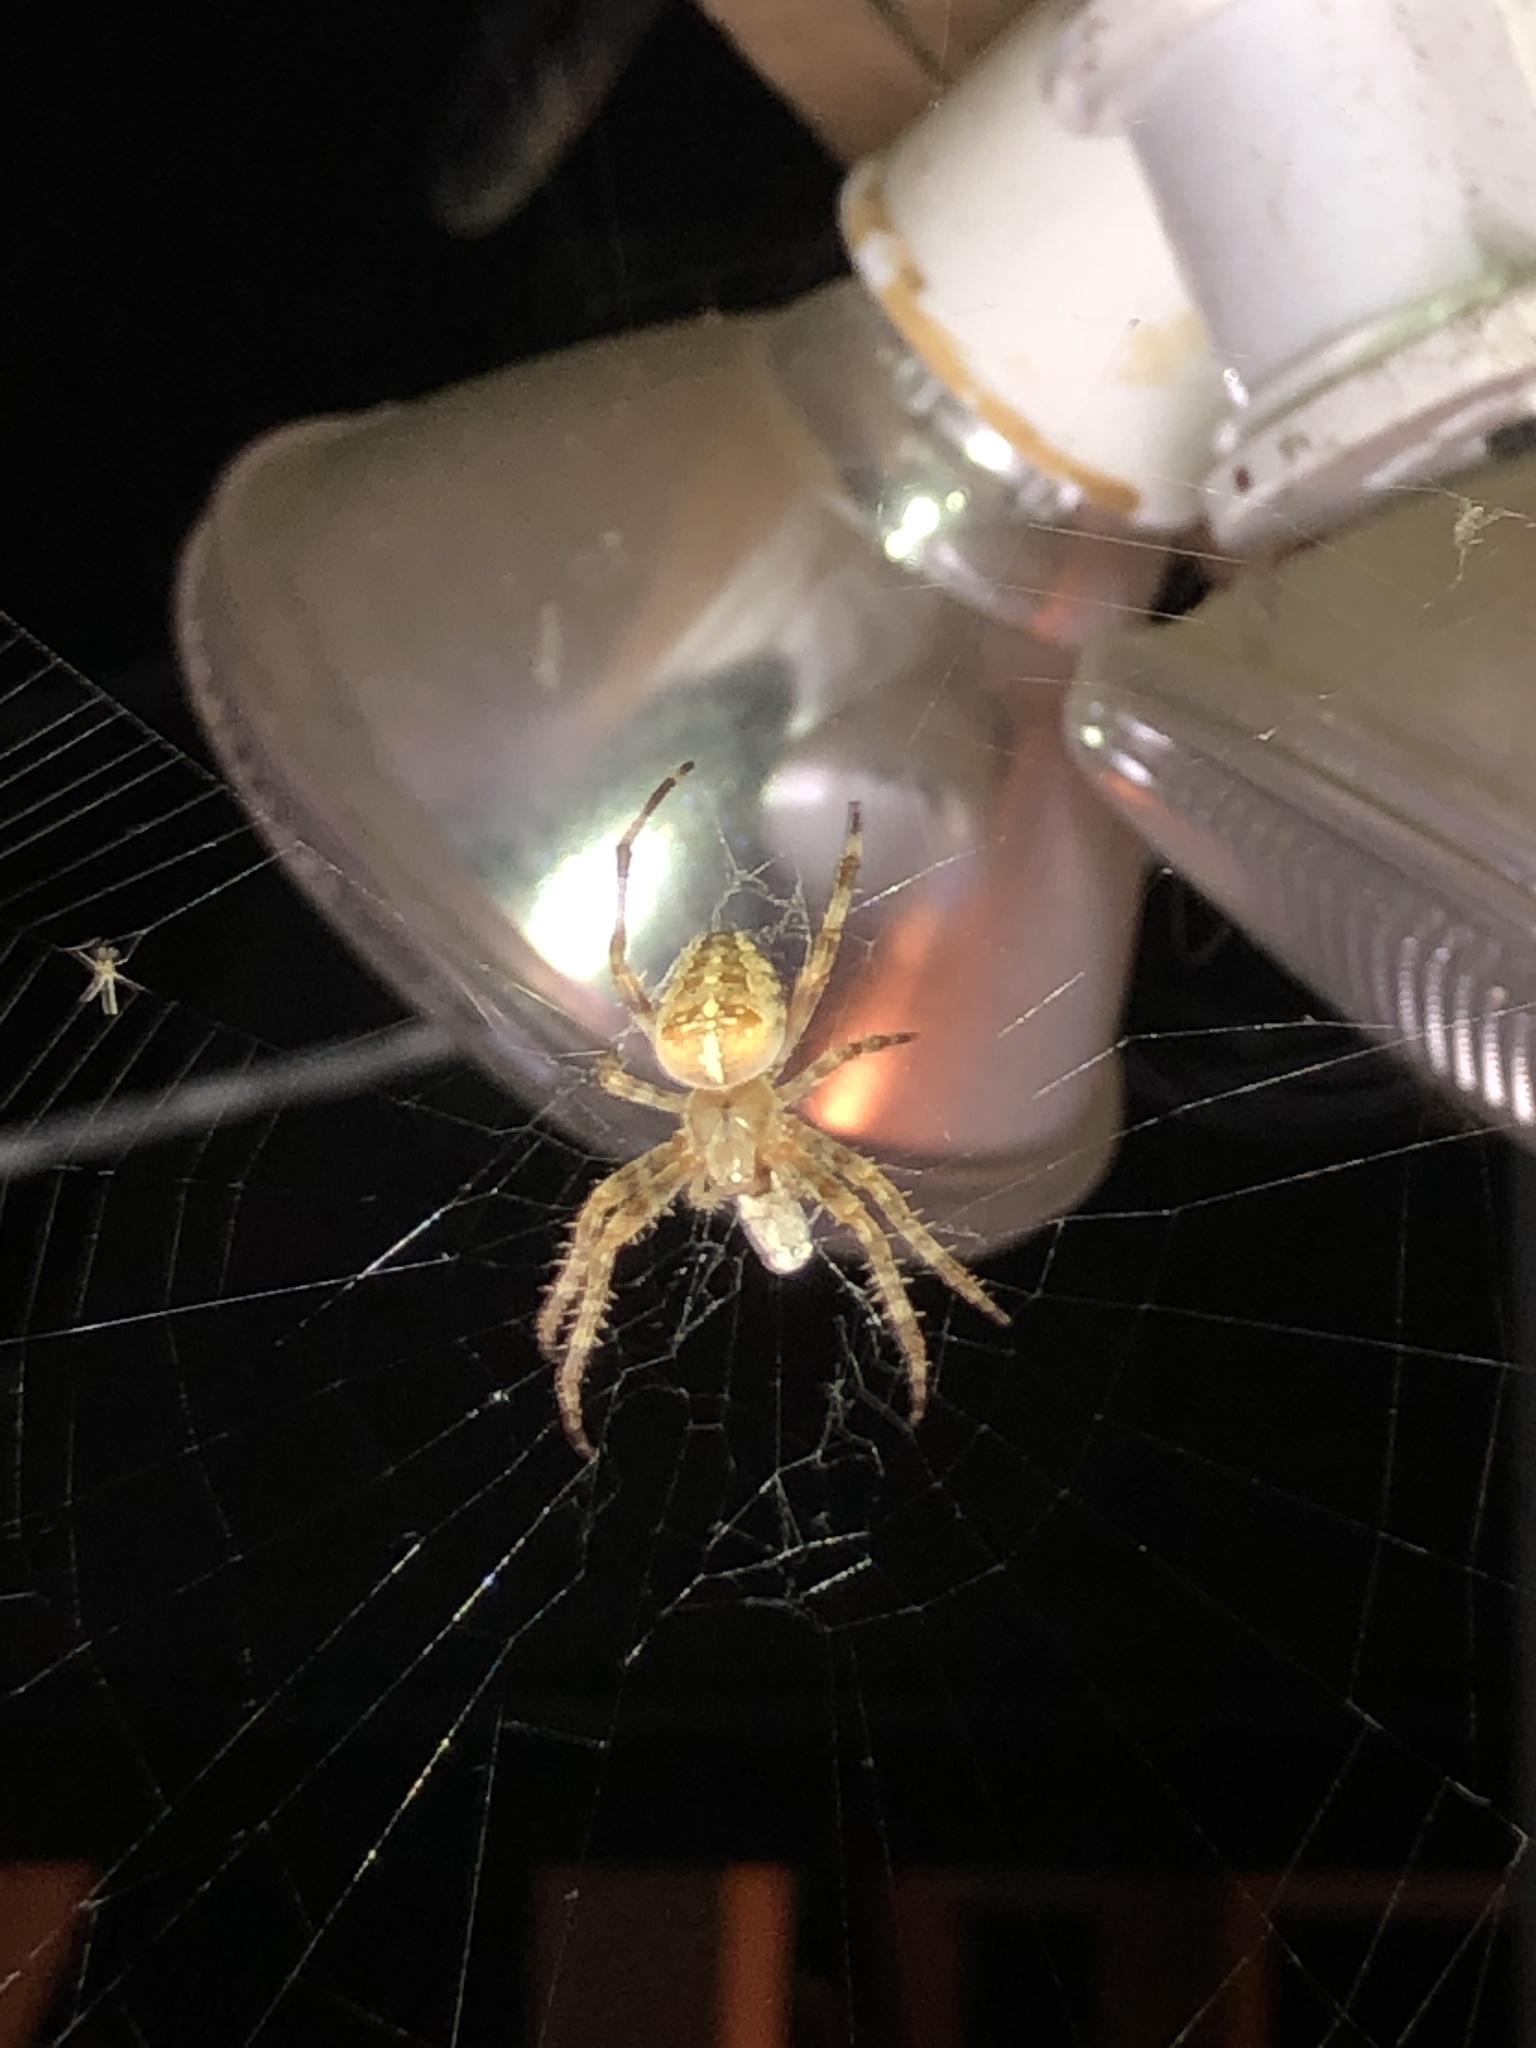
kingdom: Animalia
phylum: Arthropoda
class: Arachnida
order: Araneae
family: Araneidae
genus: Araneus
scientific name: Araneus diadematus
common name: Cross orbweaver
